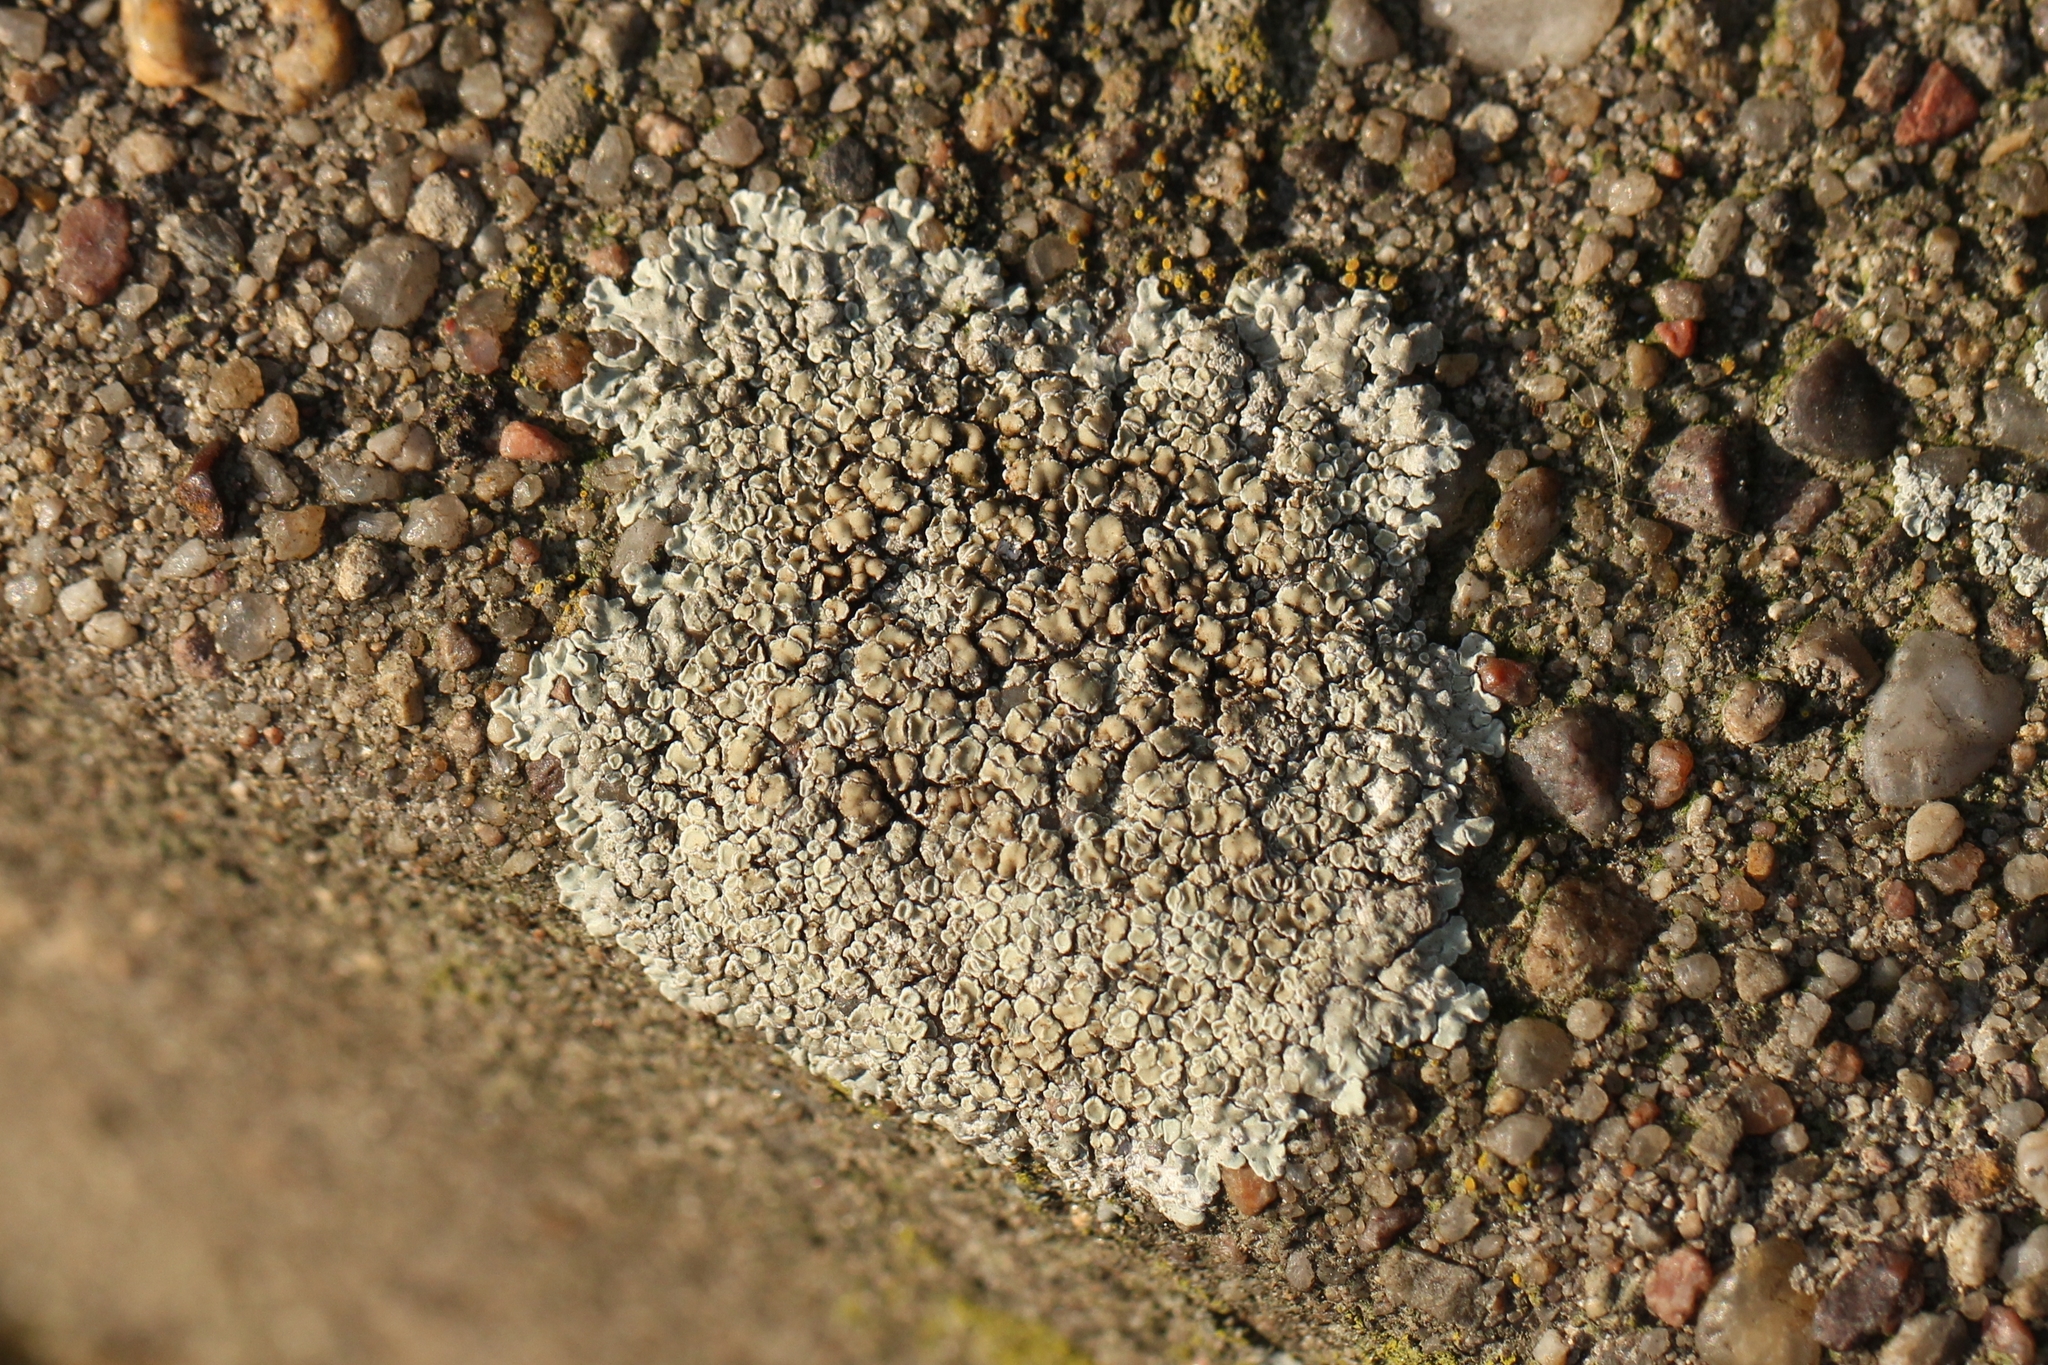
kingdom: Fungi
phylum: Ascomycota
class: Lecanoromycetes
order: Lecanorales
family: Lecanoraceae
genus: Protoparmeliopsis
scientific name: Protoparmeliopsis muralis
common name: Stonewall rim lichen
